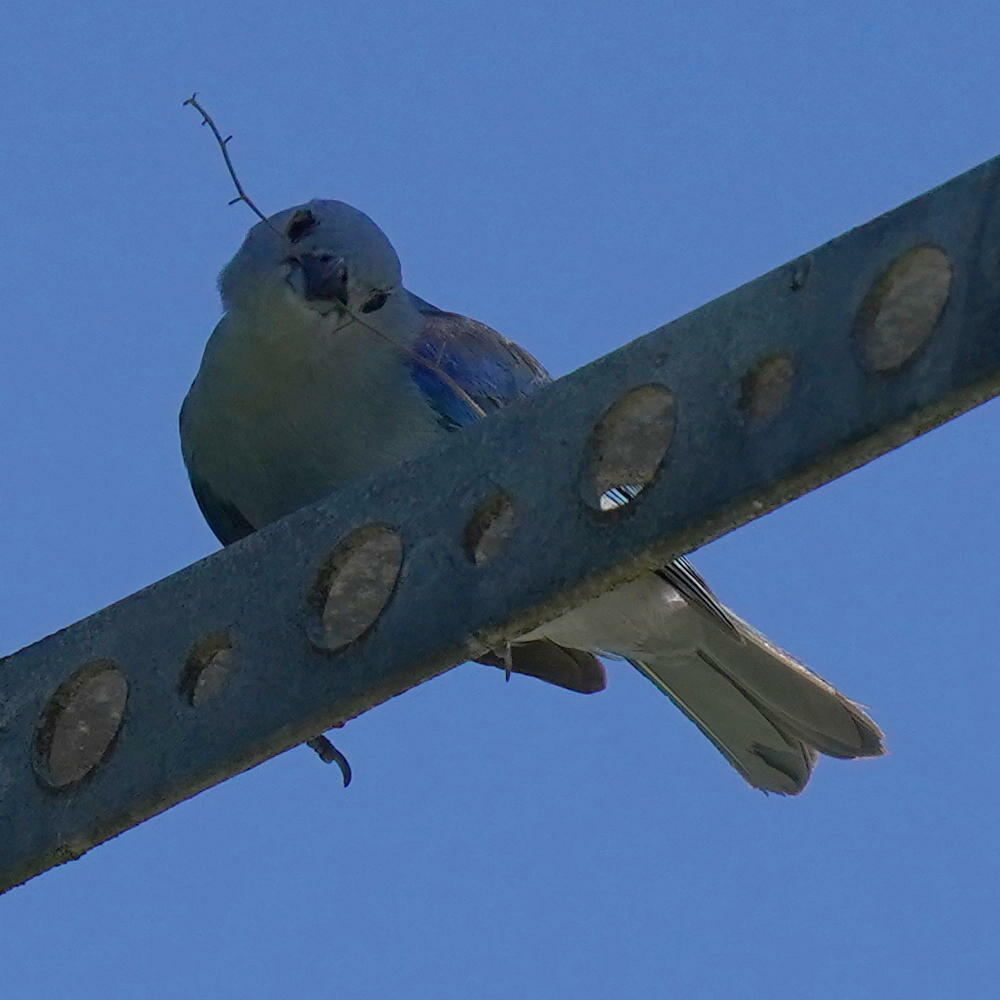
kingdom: Animalia
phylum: Chordata
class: Aves
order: Passeriformes
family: Thraupidae
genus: Thraupis
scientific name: Thraupis episcopus
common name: Blue-grey tanager
